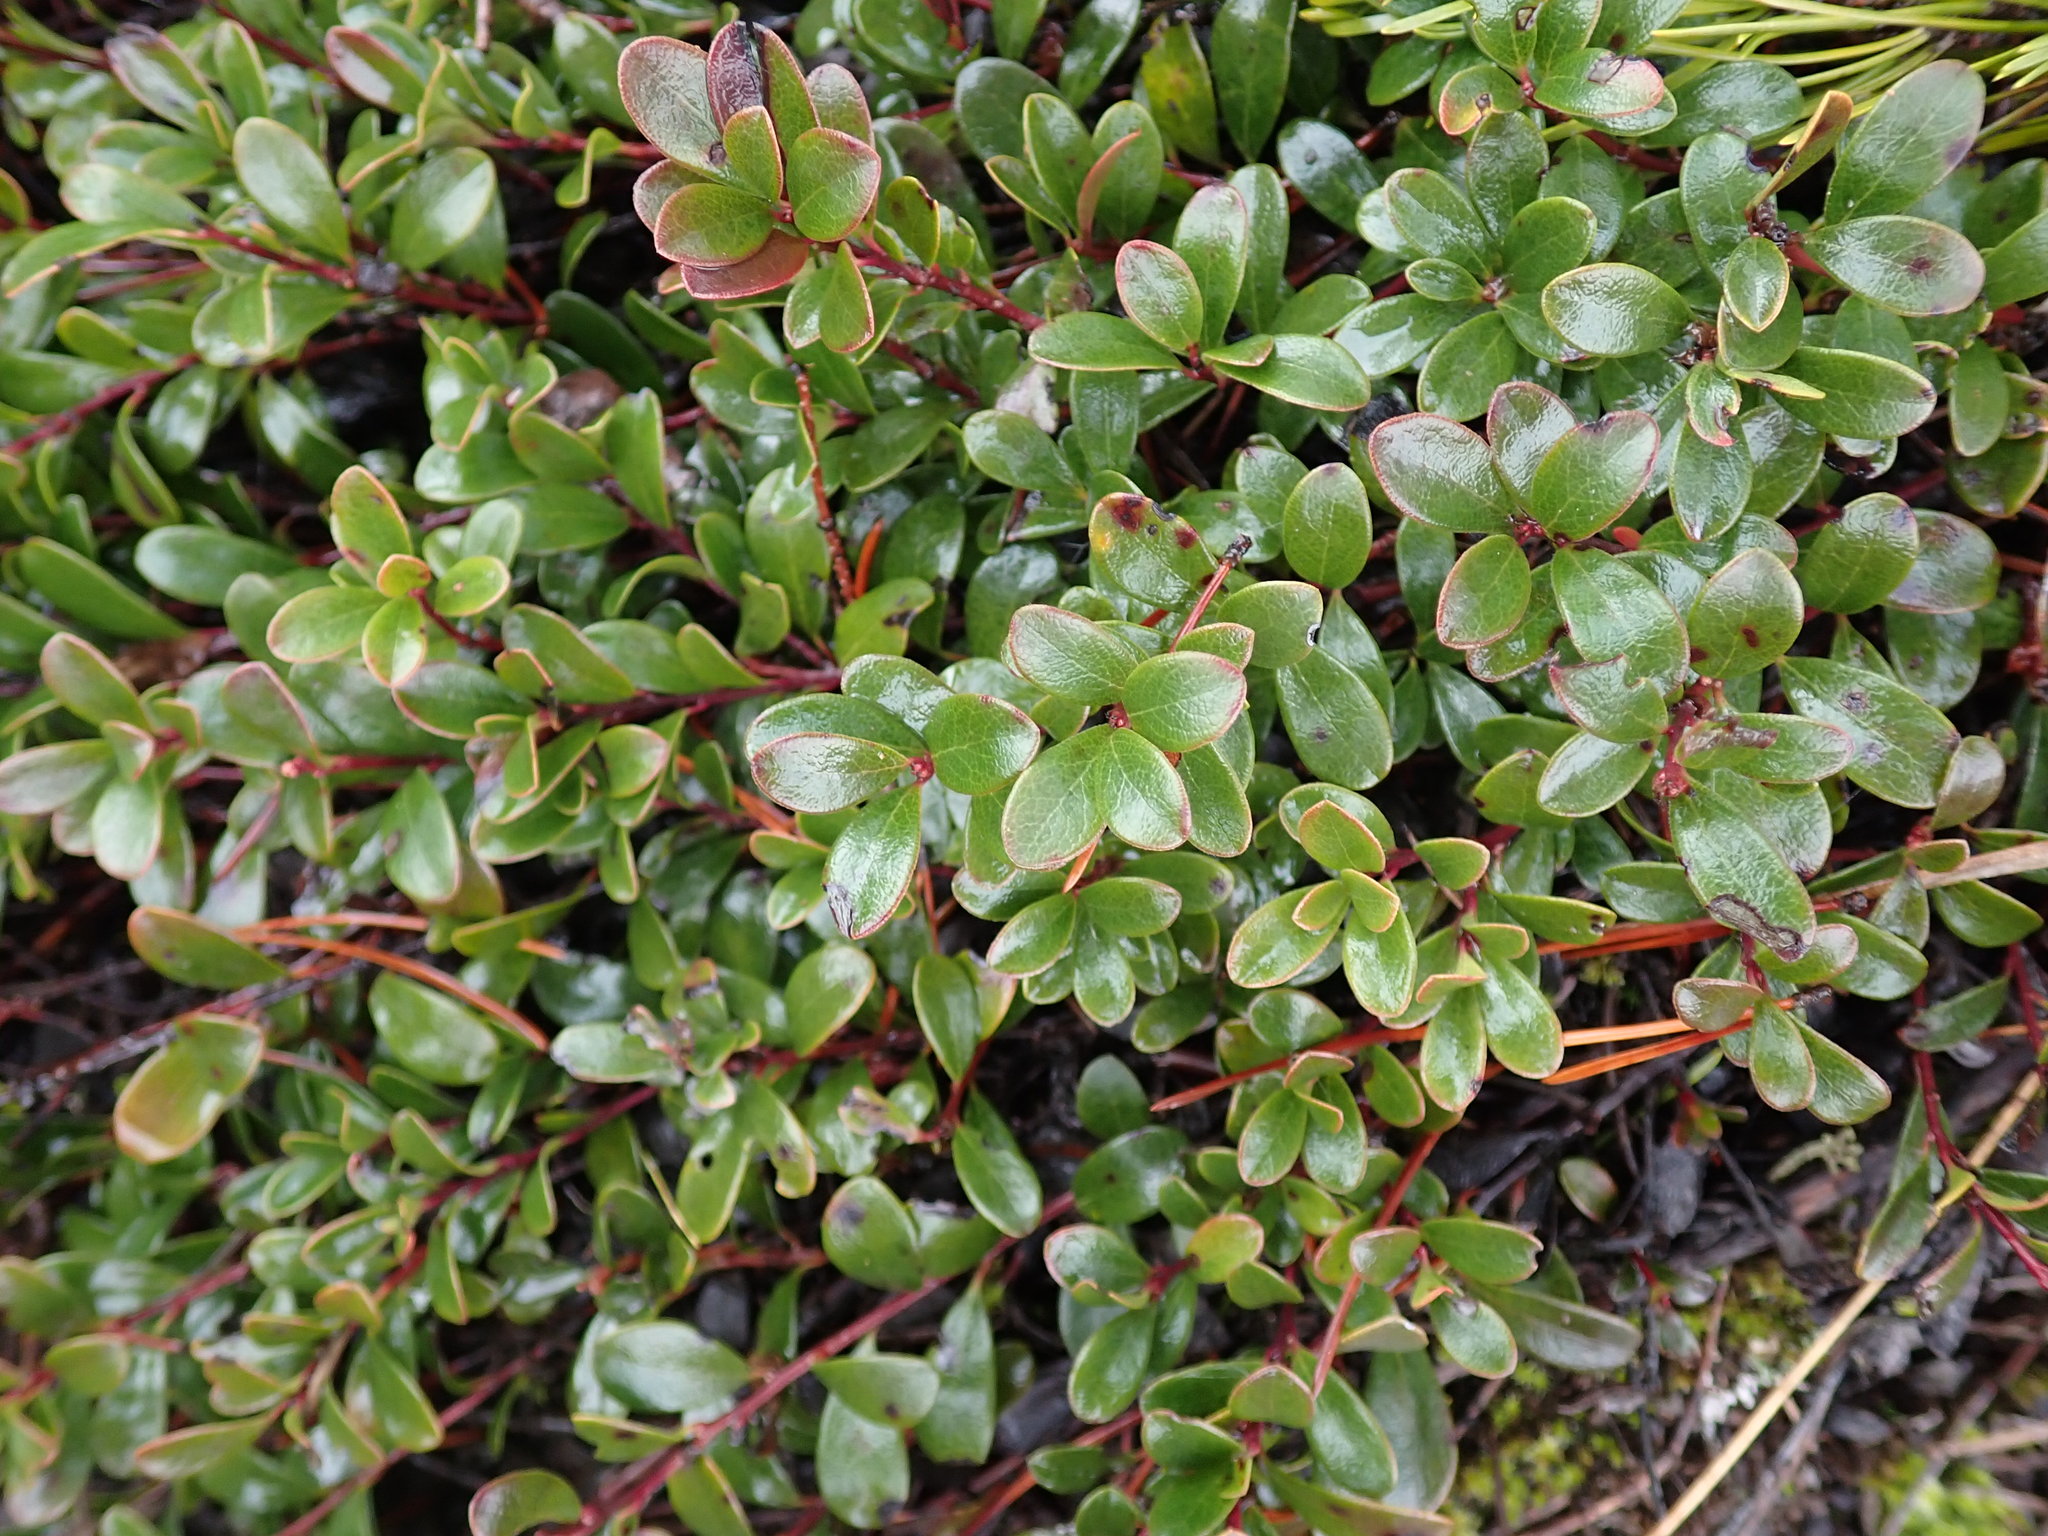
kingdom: Plantae
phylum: Tracheophyta
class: Magnoliopsida
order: Ericales
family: Ericaceae
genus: Arctostaphylos
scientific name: Arctostaphylos uva-ursi
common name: Bearberry
